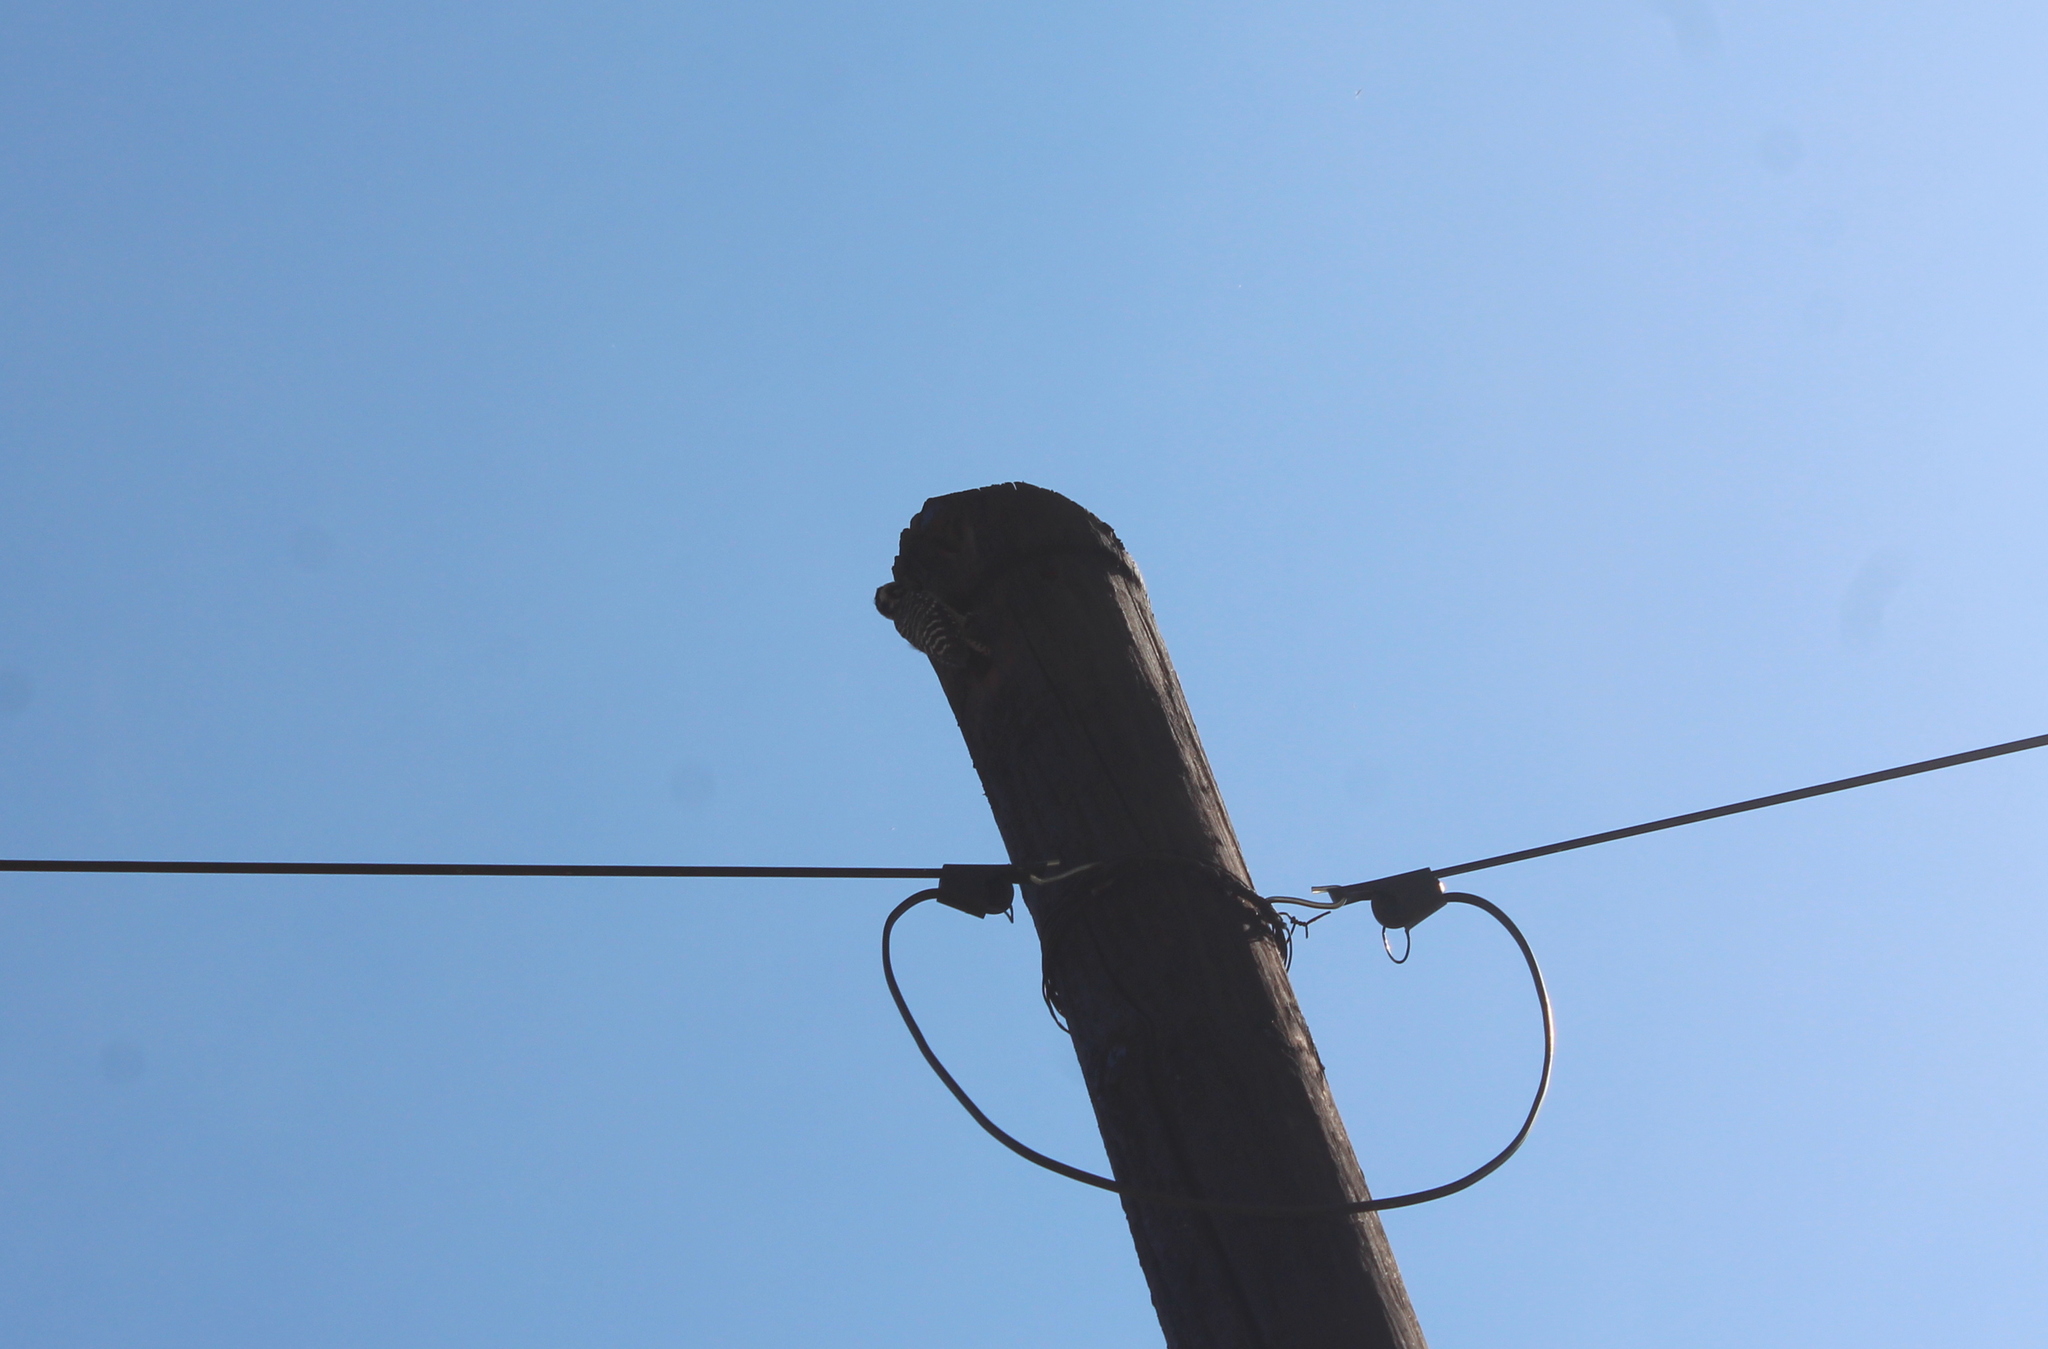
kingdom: Animalia
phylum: Chordata
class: Aves
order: Piciformes
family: Picidae
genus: Dryobates
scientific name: Dryobates scalaris
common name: Ladder-backed woodpecker
